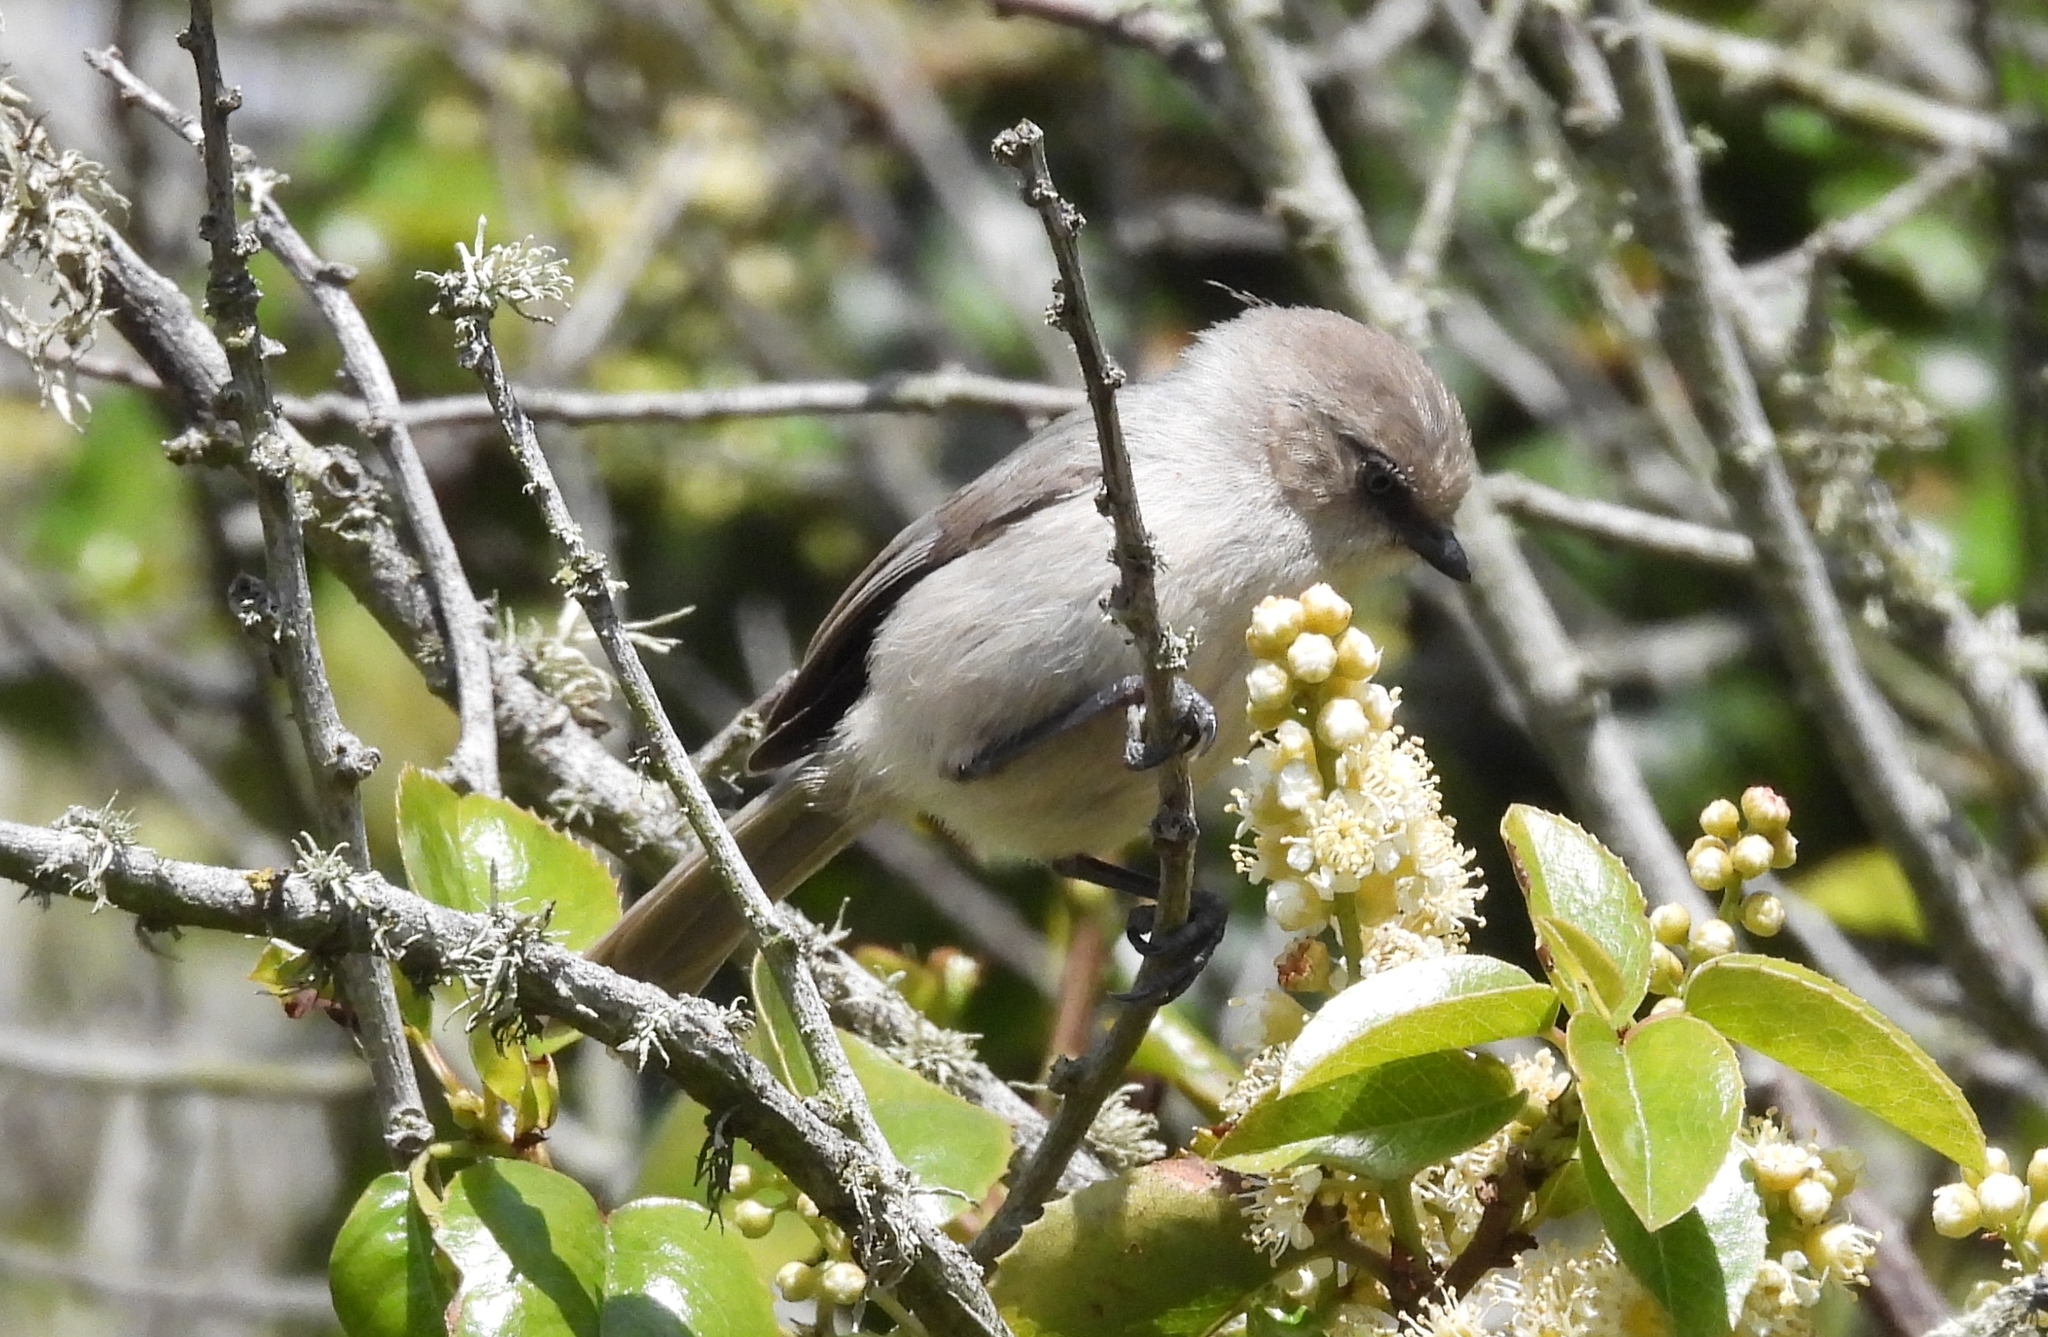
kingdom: Animalia
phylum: Chordata
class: Aves
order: Passeriformes
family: Aegithalidae
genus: Psaltriparus
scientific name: Psaltriparus minimus
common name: American bushtit
